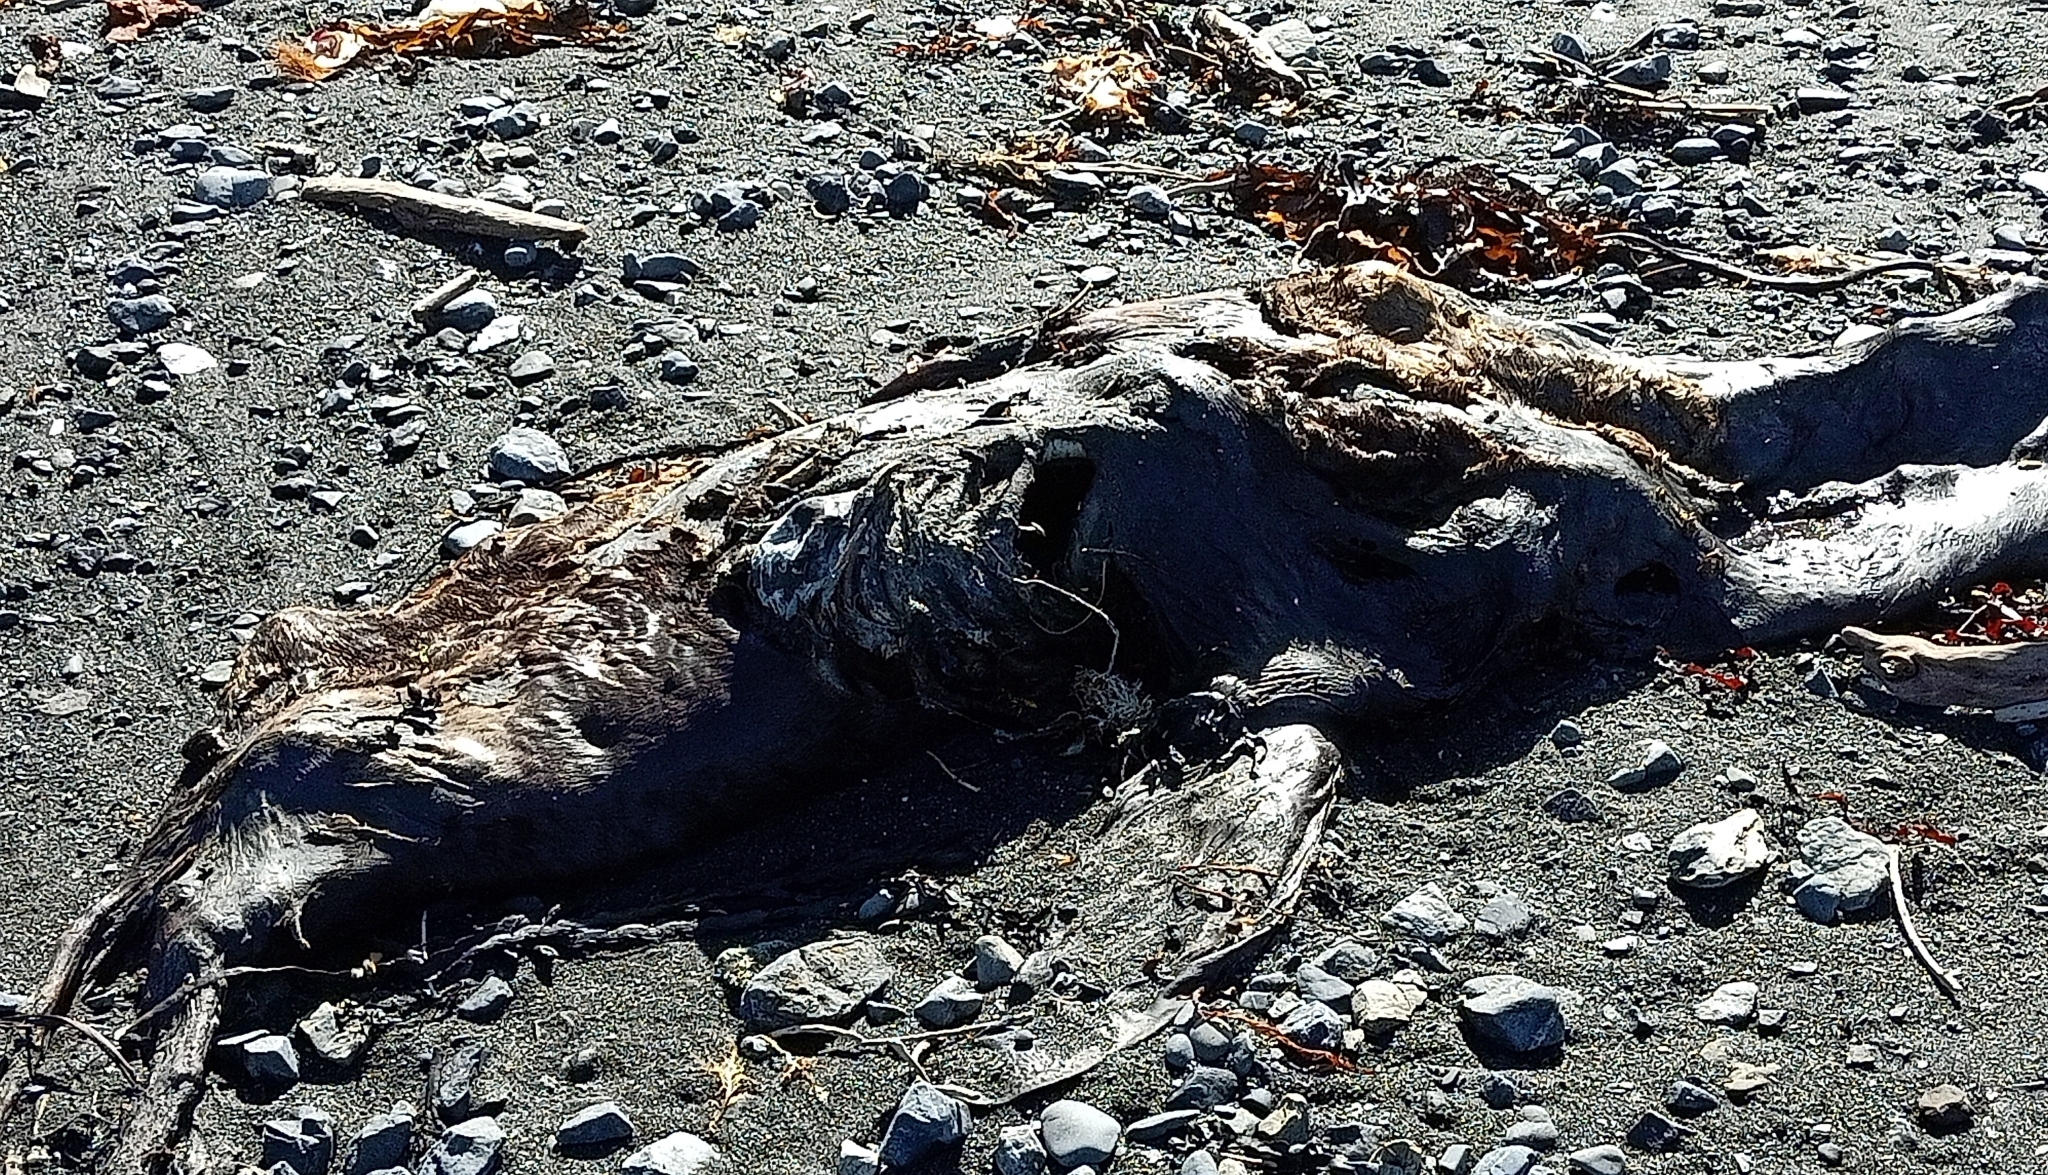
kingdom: Animalia
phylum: Chordata
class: Mammalia
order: Carnivora
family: Otariidae
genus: Arctocephalus
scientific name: Arctocephalus forsteri
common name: New zealand fur seal
